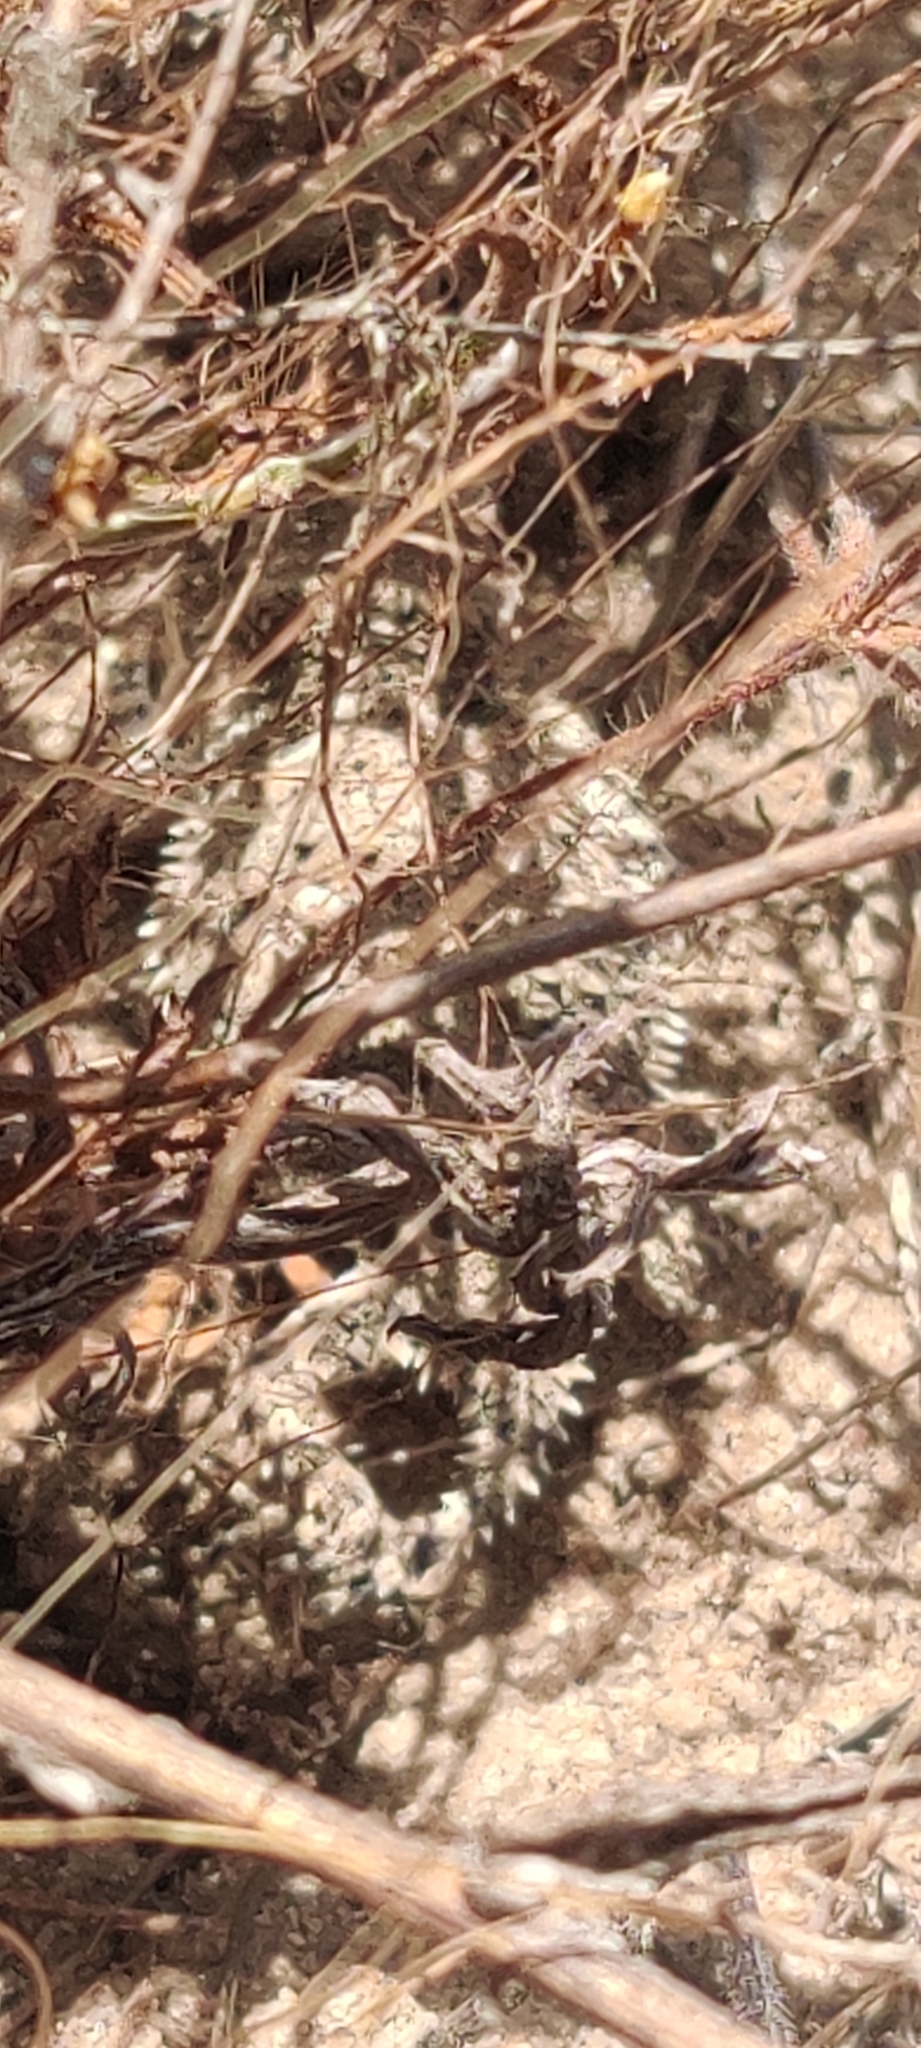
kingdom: Animalia
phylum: Chordata
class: Squamata
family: Phrynosomatidae
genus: Phrynosoma
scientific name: Phrynosoma blainvillii
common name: San diego horned lizard
